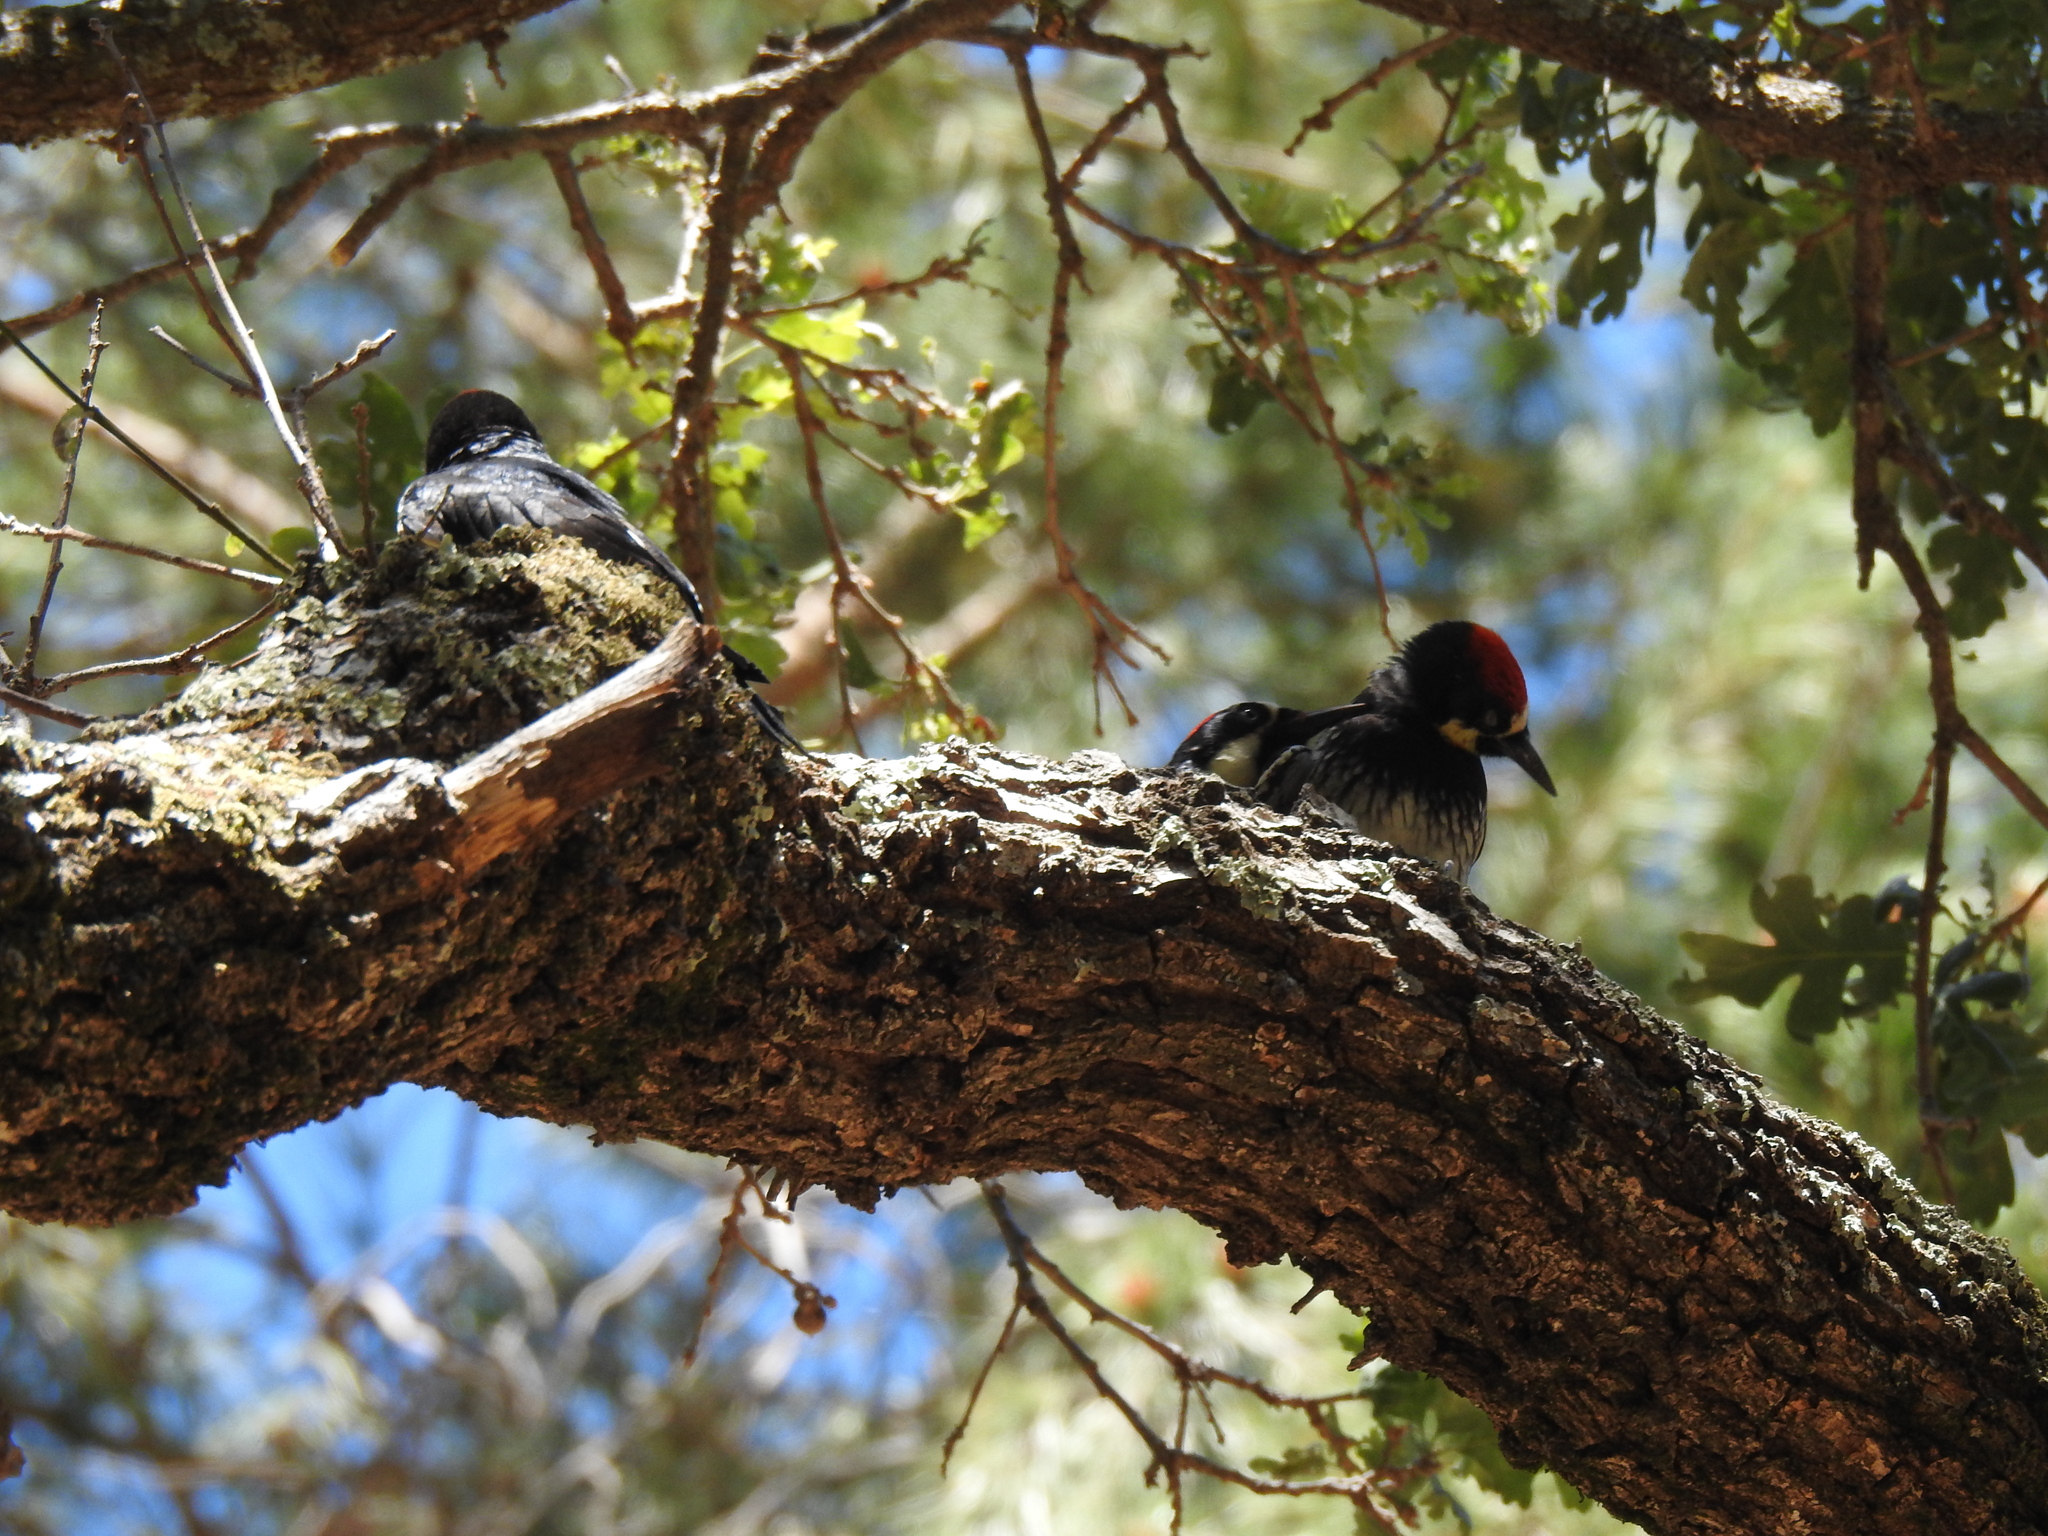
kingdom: Animalia
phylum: Chordata
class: Aves
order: Piciformes
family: Picidae
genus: Melanerpes
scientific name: Melanerpes formicivorus
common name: Acorn woodpecker
